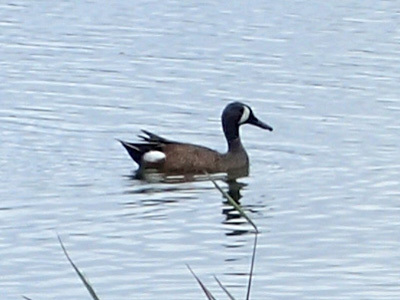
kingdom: Animalia
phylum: Chordata
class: Aves
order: Anseriformes
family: Anatidae
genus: Spatula
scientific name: Spatula discors
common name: Blue-winged teal
